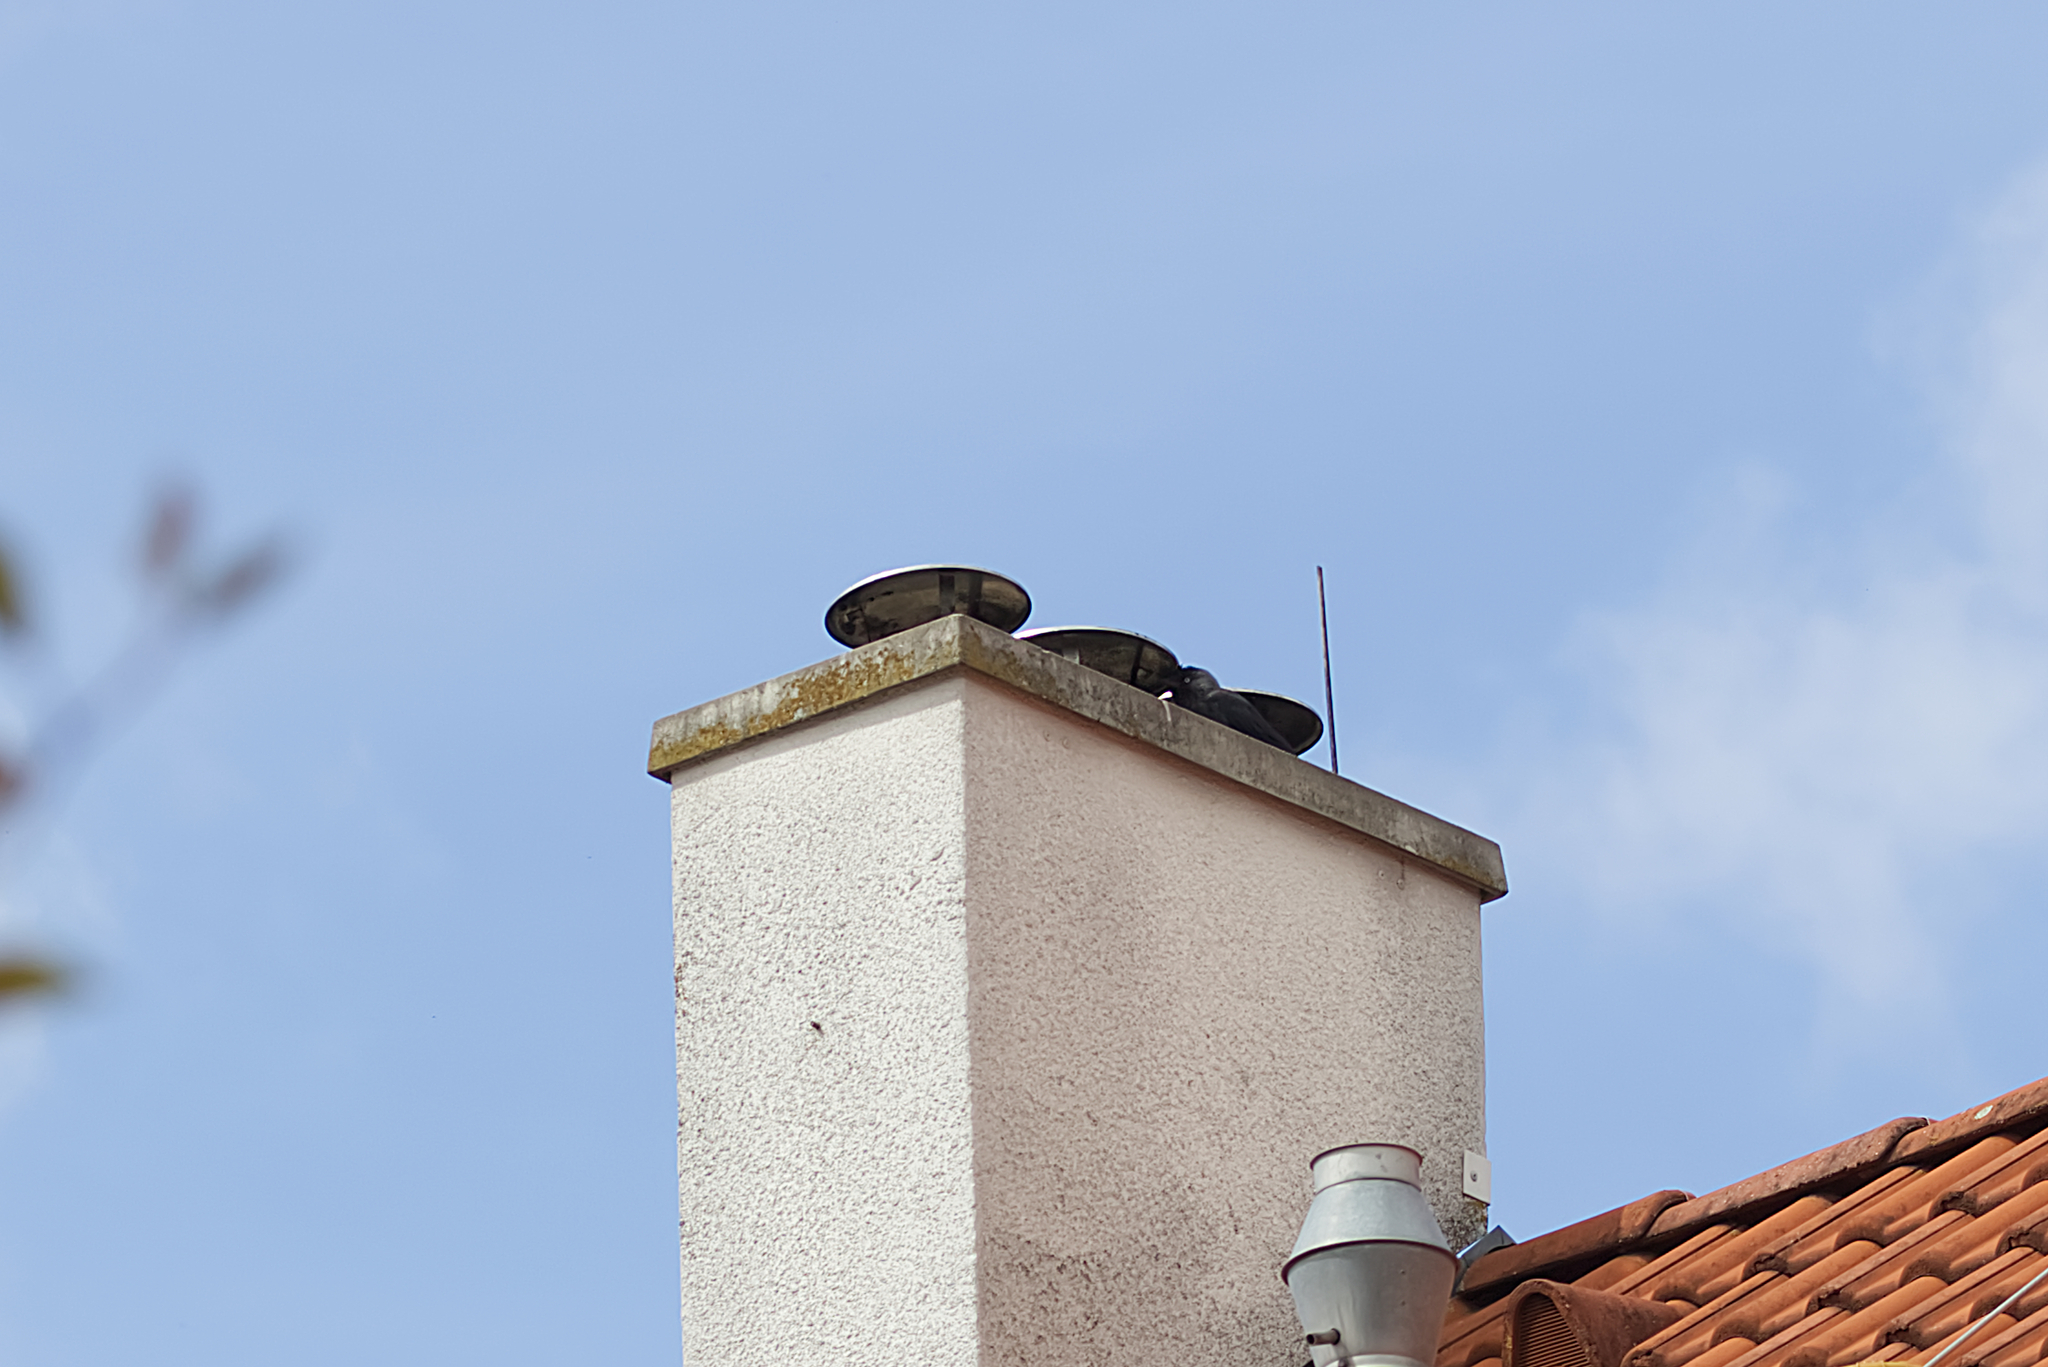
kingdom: Animalia
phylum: Chordata
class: Aves
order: Passeriformes
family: Corvidae
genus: Coloeus
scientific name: Coloeus monedula
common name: Western jackdaw
